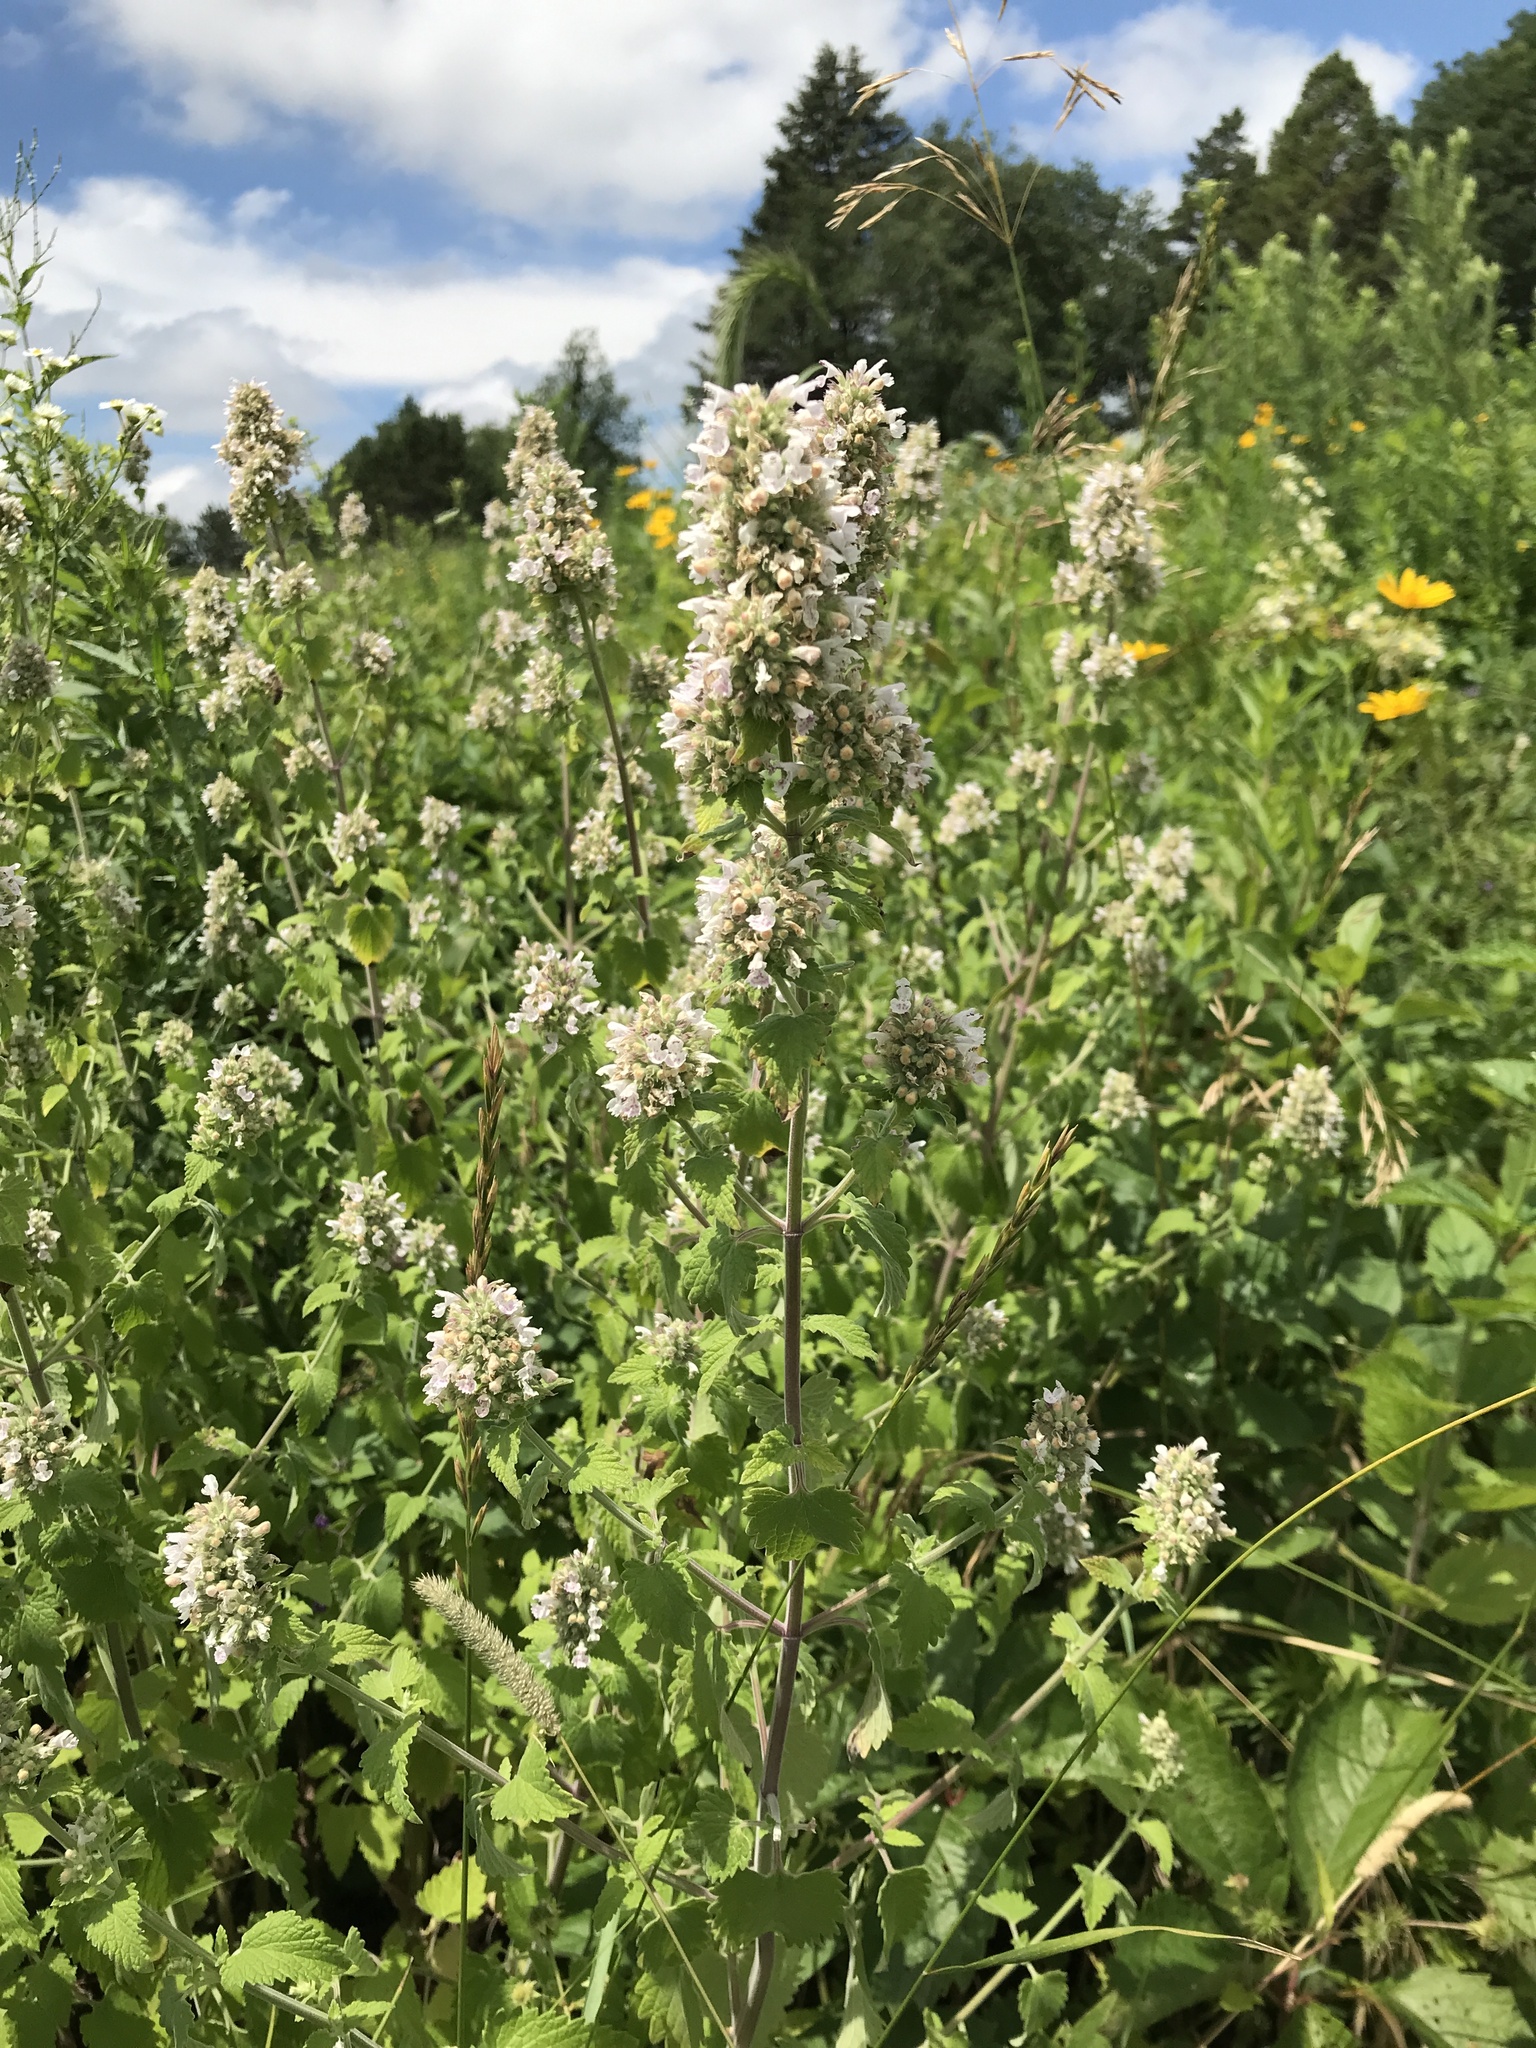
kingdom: Plantae
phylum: Tracheophyta
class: Magnoliopsida
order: Lamiales
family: Lamiaceae
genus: Nepeta
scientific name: Nepeta cataria
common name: Catnip
